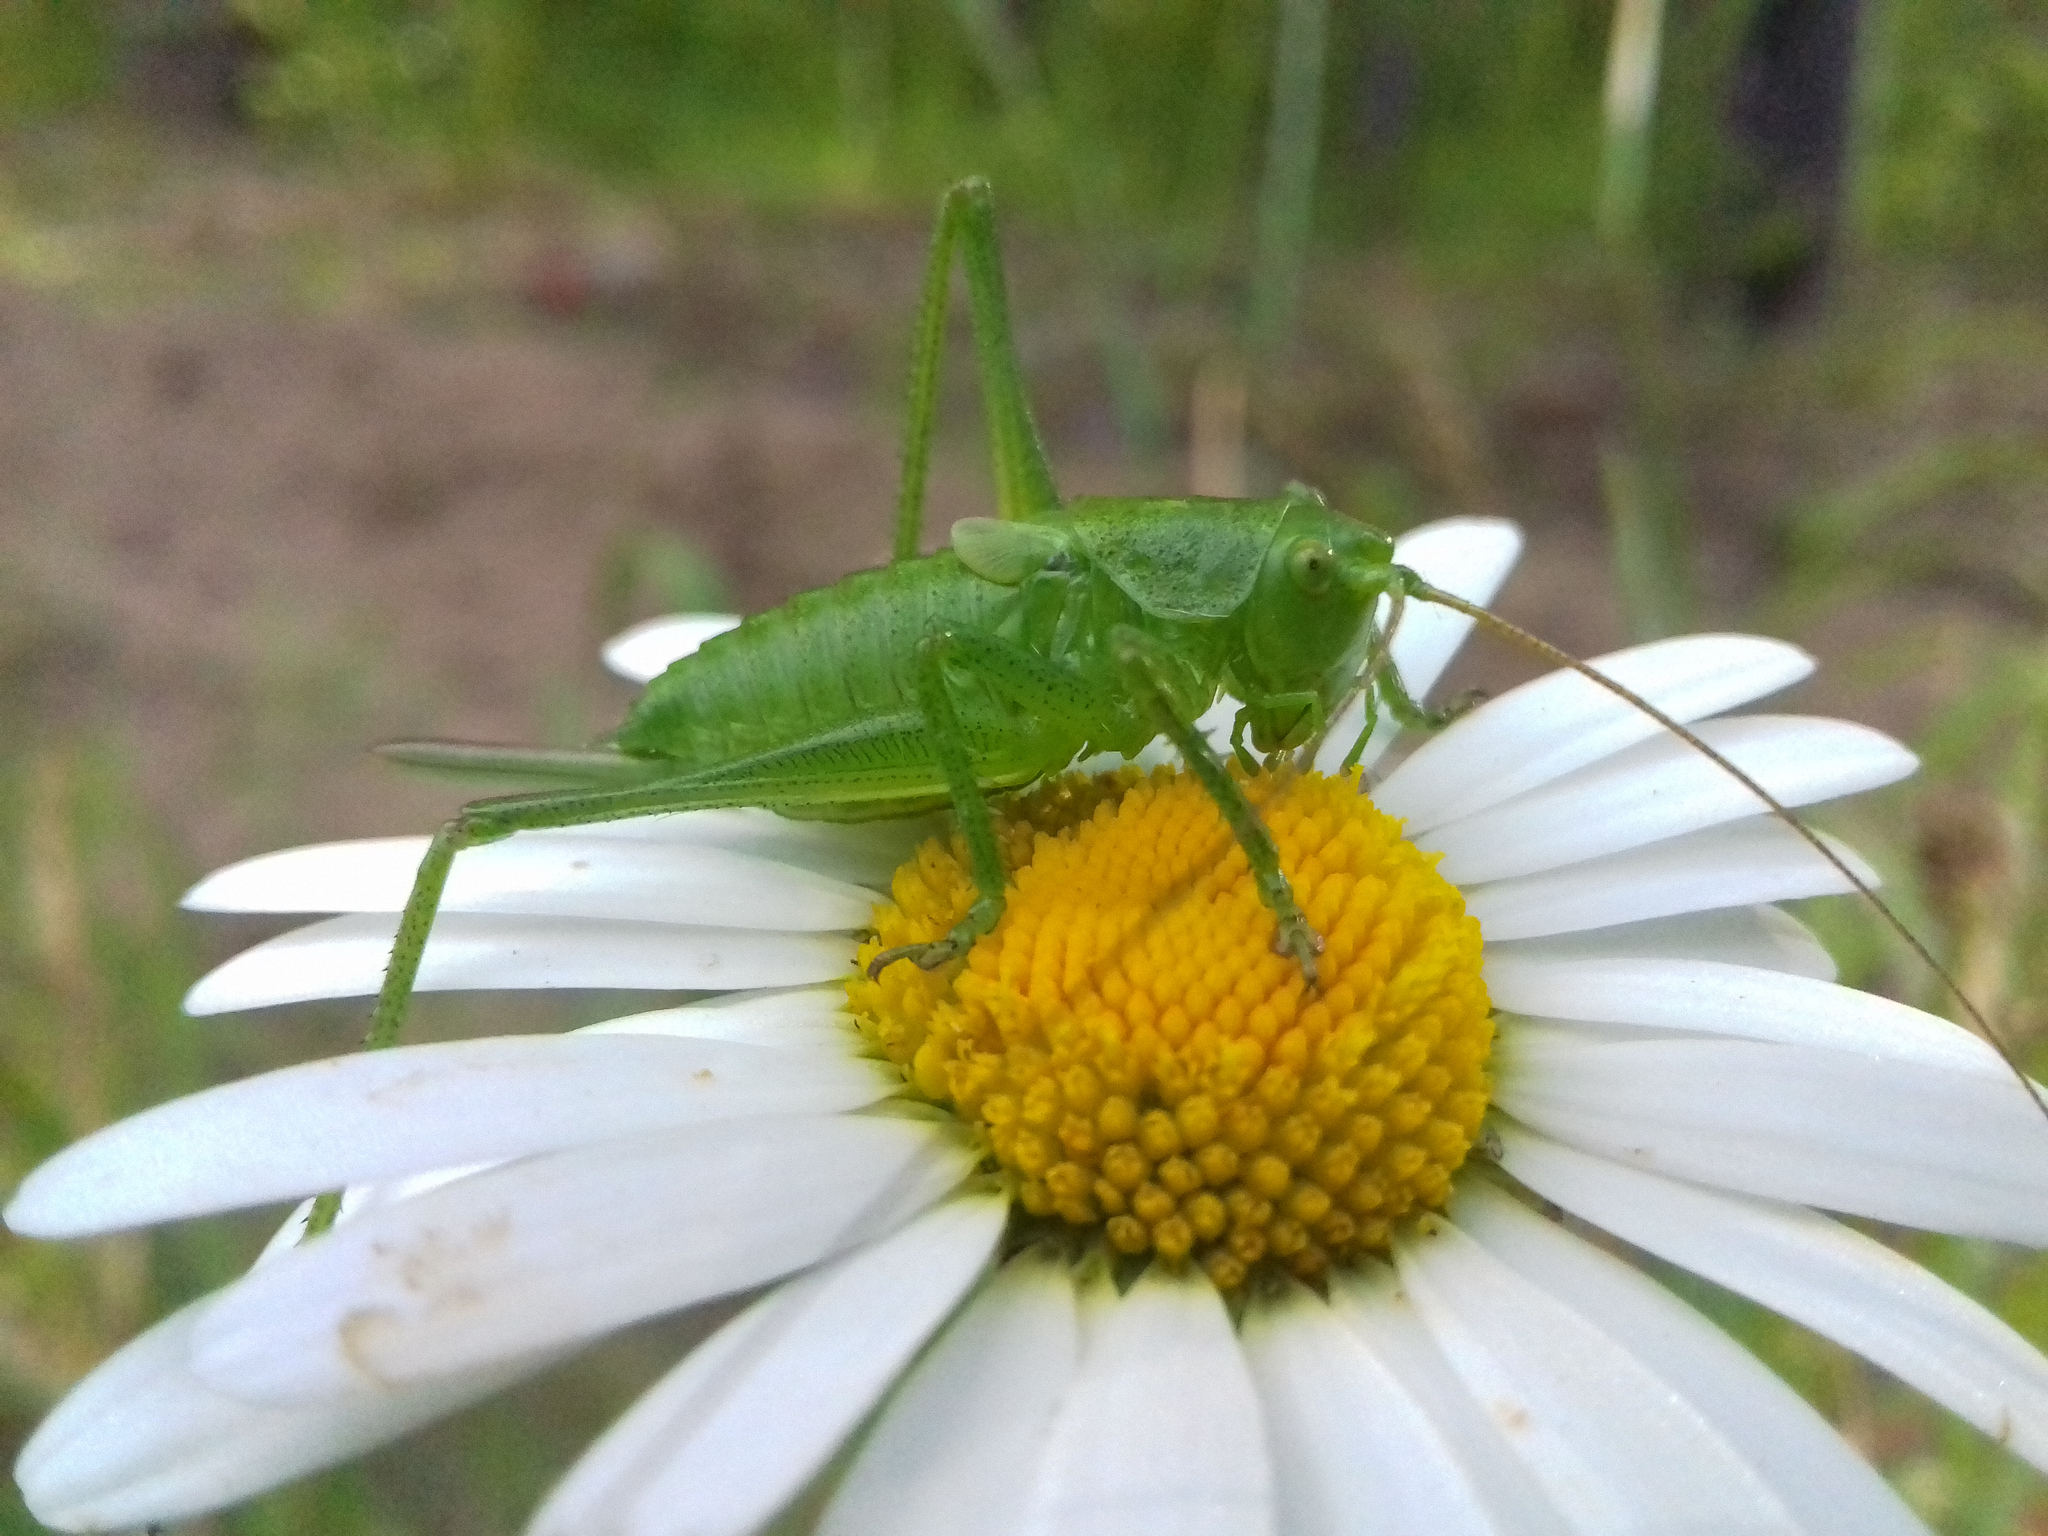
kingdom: Animalia
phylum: Arthropoda
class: Insecta
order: Orthoptera
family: Tettigoniidae
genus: Tettigonia
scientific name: Tettigonia cantans
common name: Upland green bush-cricket
